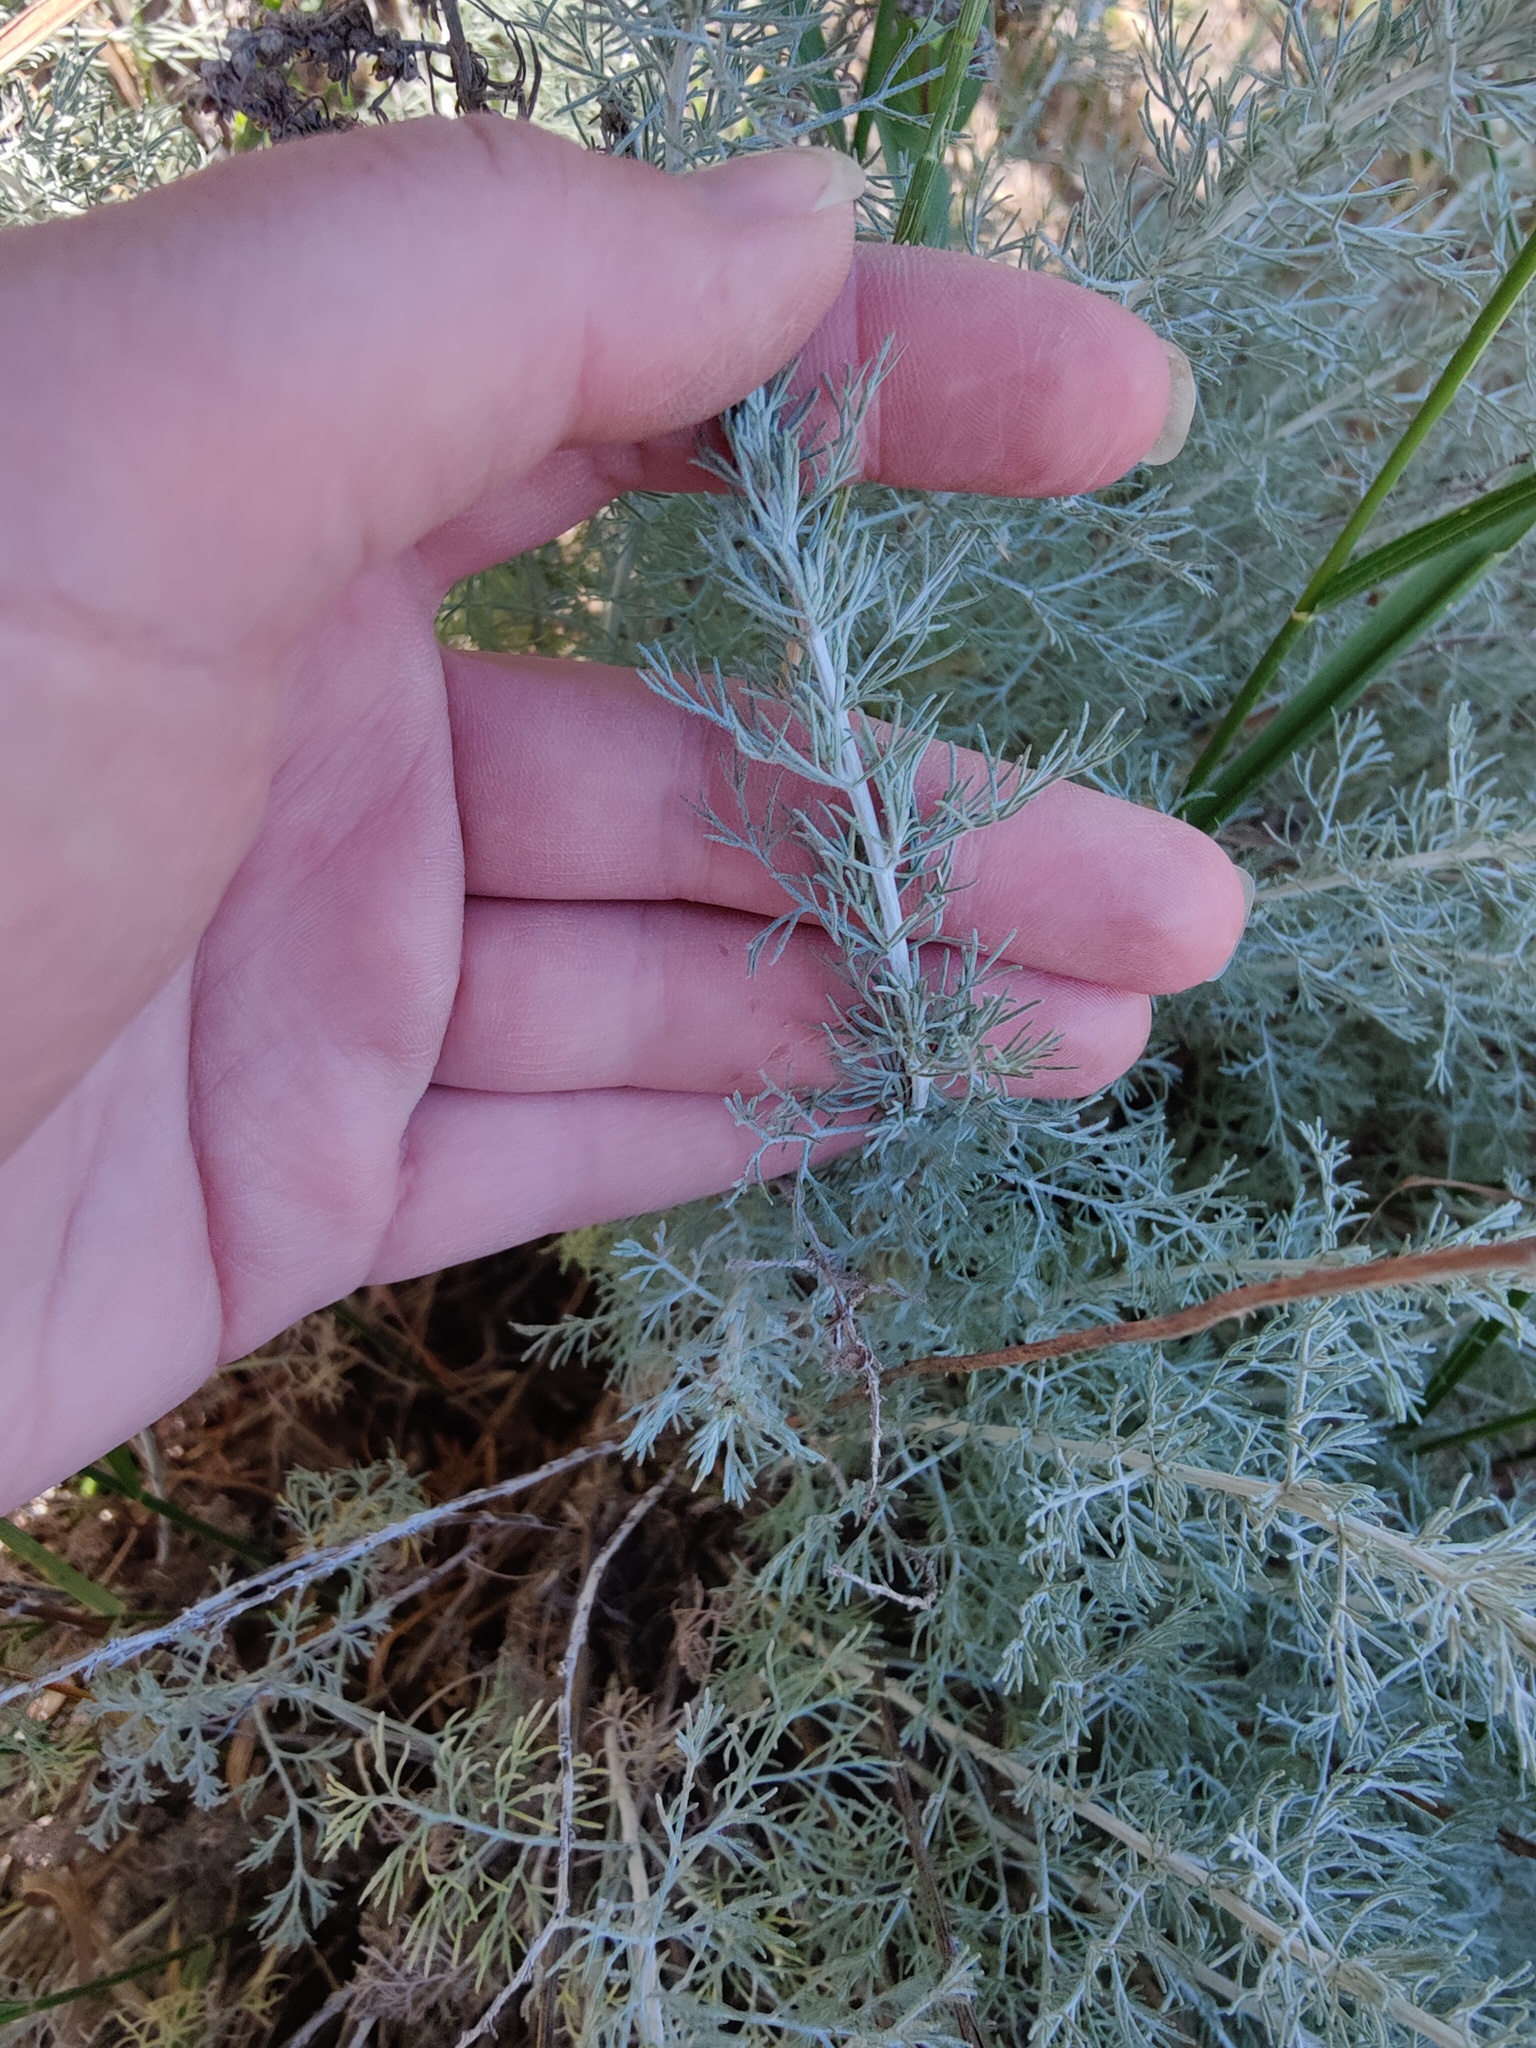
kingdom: Plantae
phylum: Tracheophyta
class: Magnoliopsida
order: Asterales
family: Asteraceae
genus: Artemisia
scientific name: Artemisia taurica
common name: Tauric wormwood
